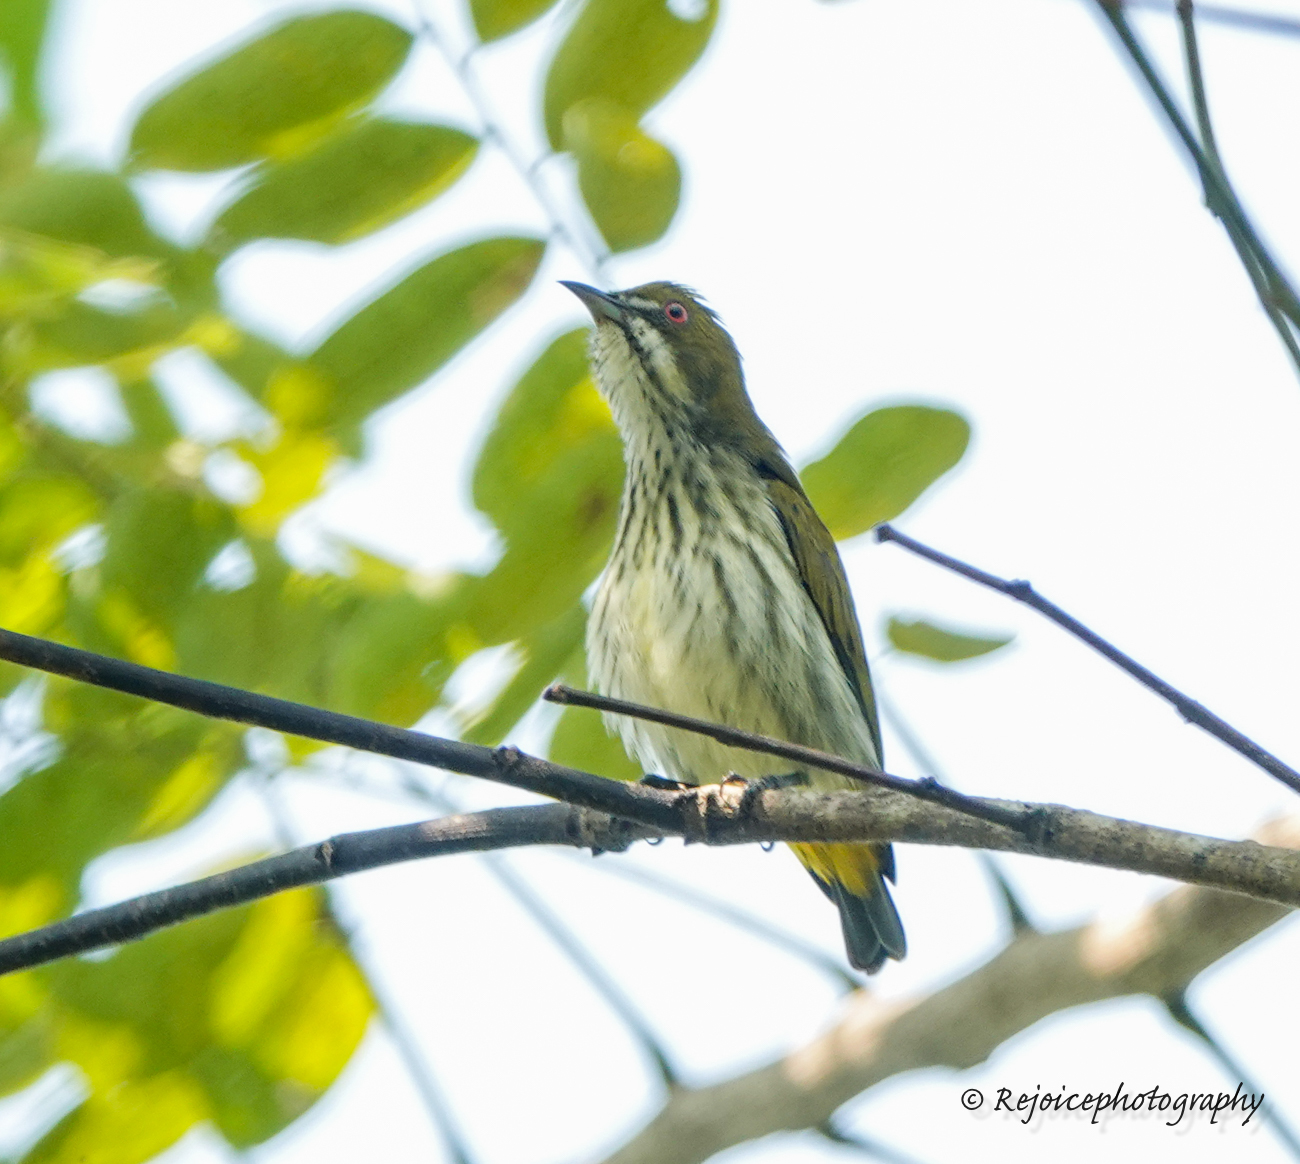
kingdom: Animalia
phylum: Chordata
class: Aves
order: Passeriformes
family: Dicaeidae
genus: Dicaeum
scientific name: Dicaeum chrysorrheum
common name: Yellow-vented flowerpecker
